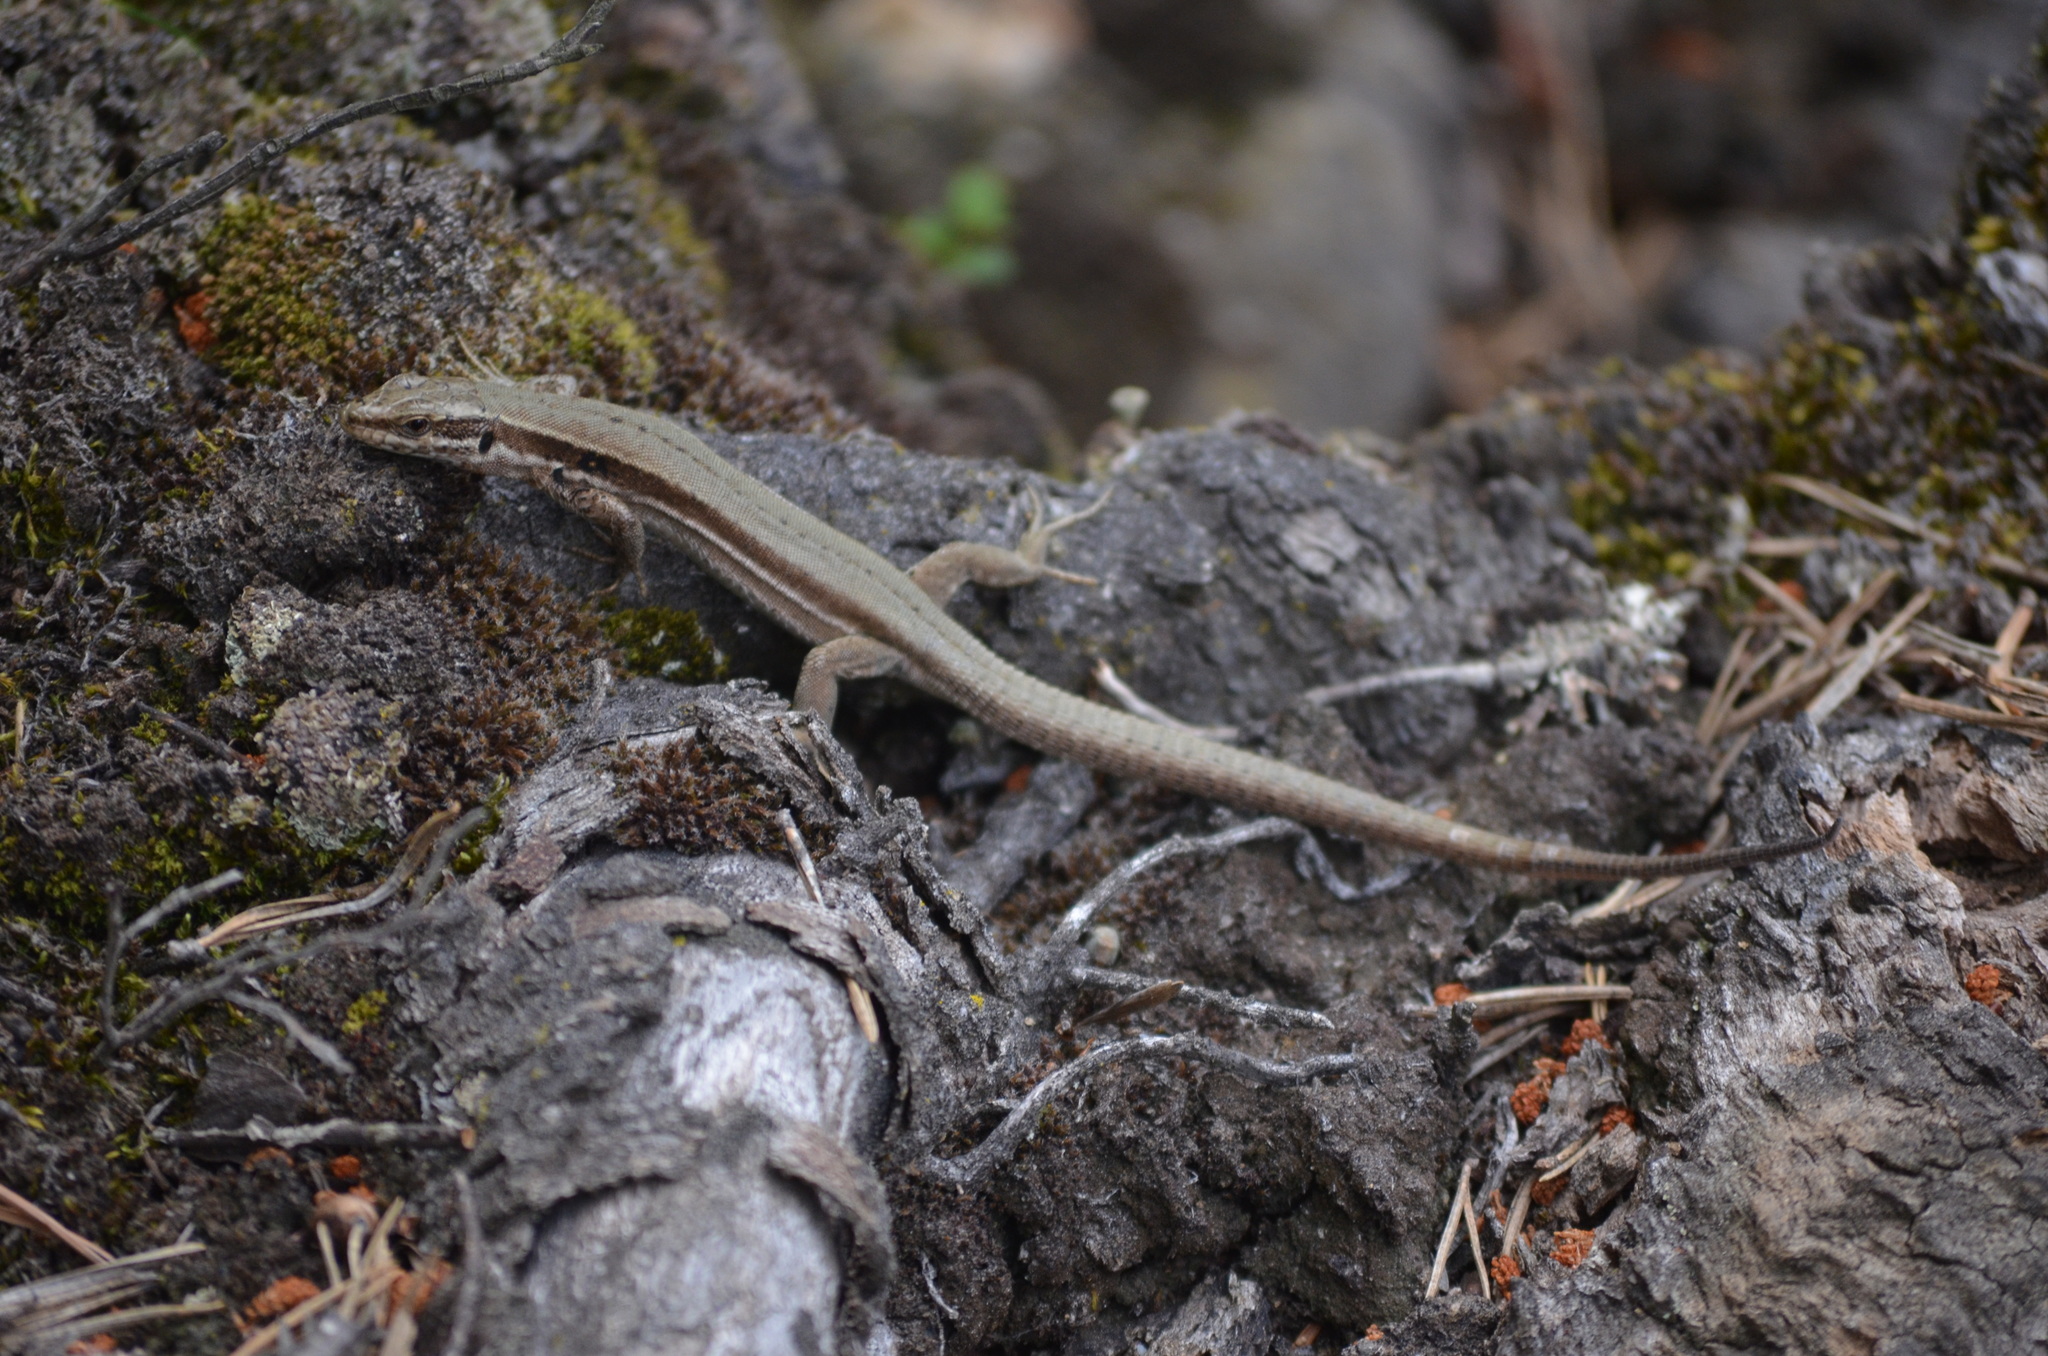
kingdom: Animalia
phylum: Chordata
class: Squamata
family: Lacertidae
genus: Podarcis
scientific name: Podarcis muralis
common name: Common wall lizard
